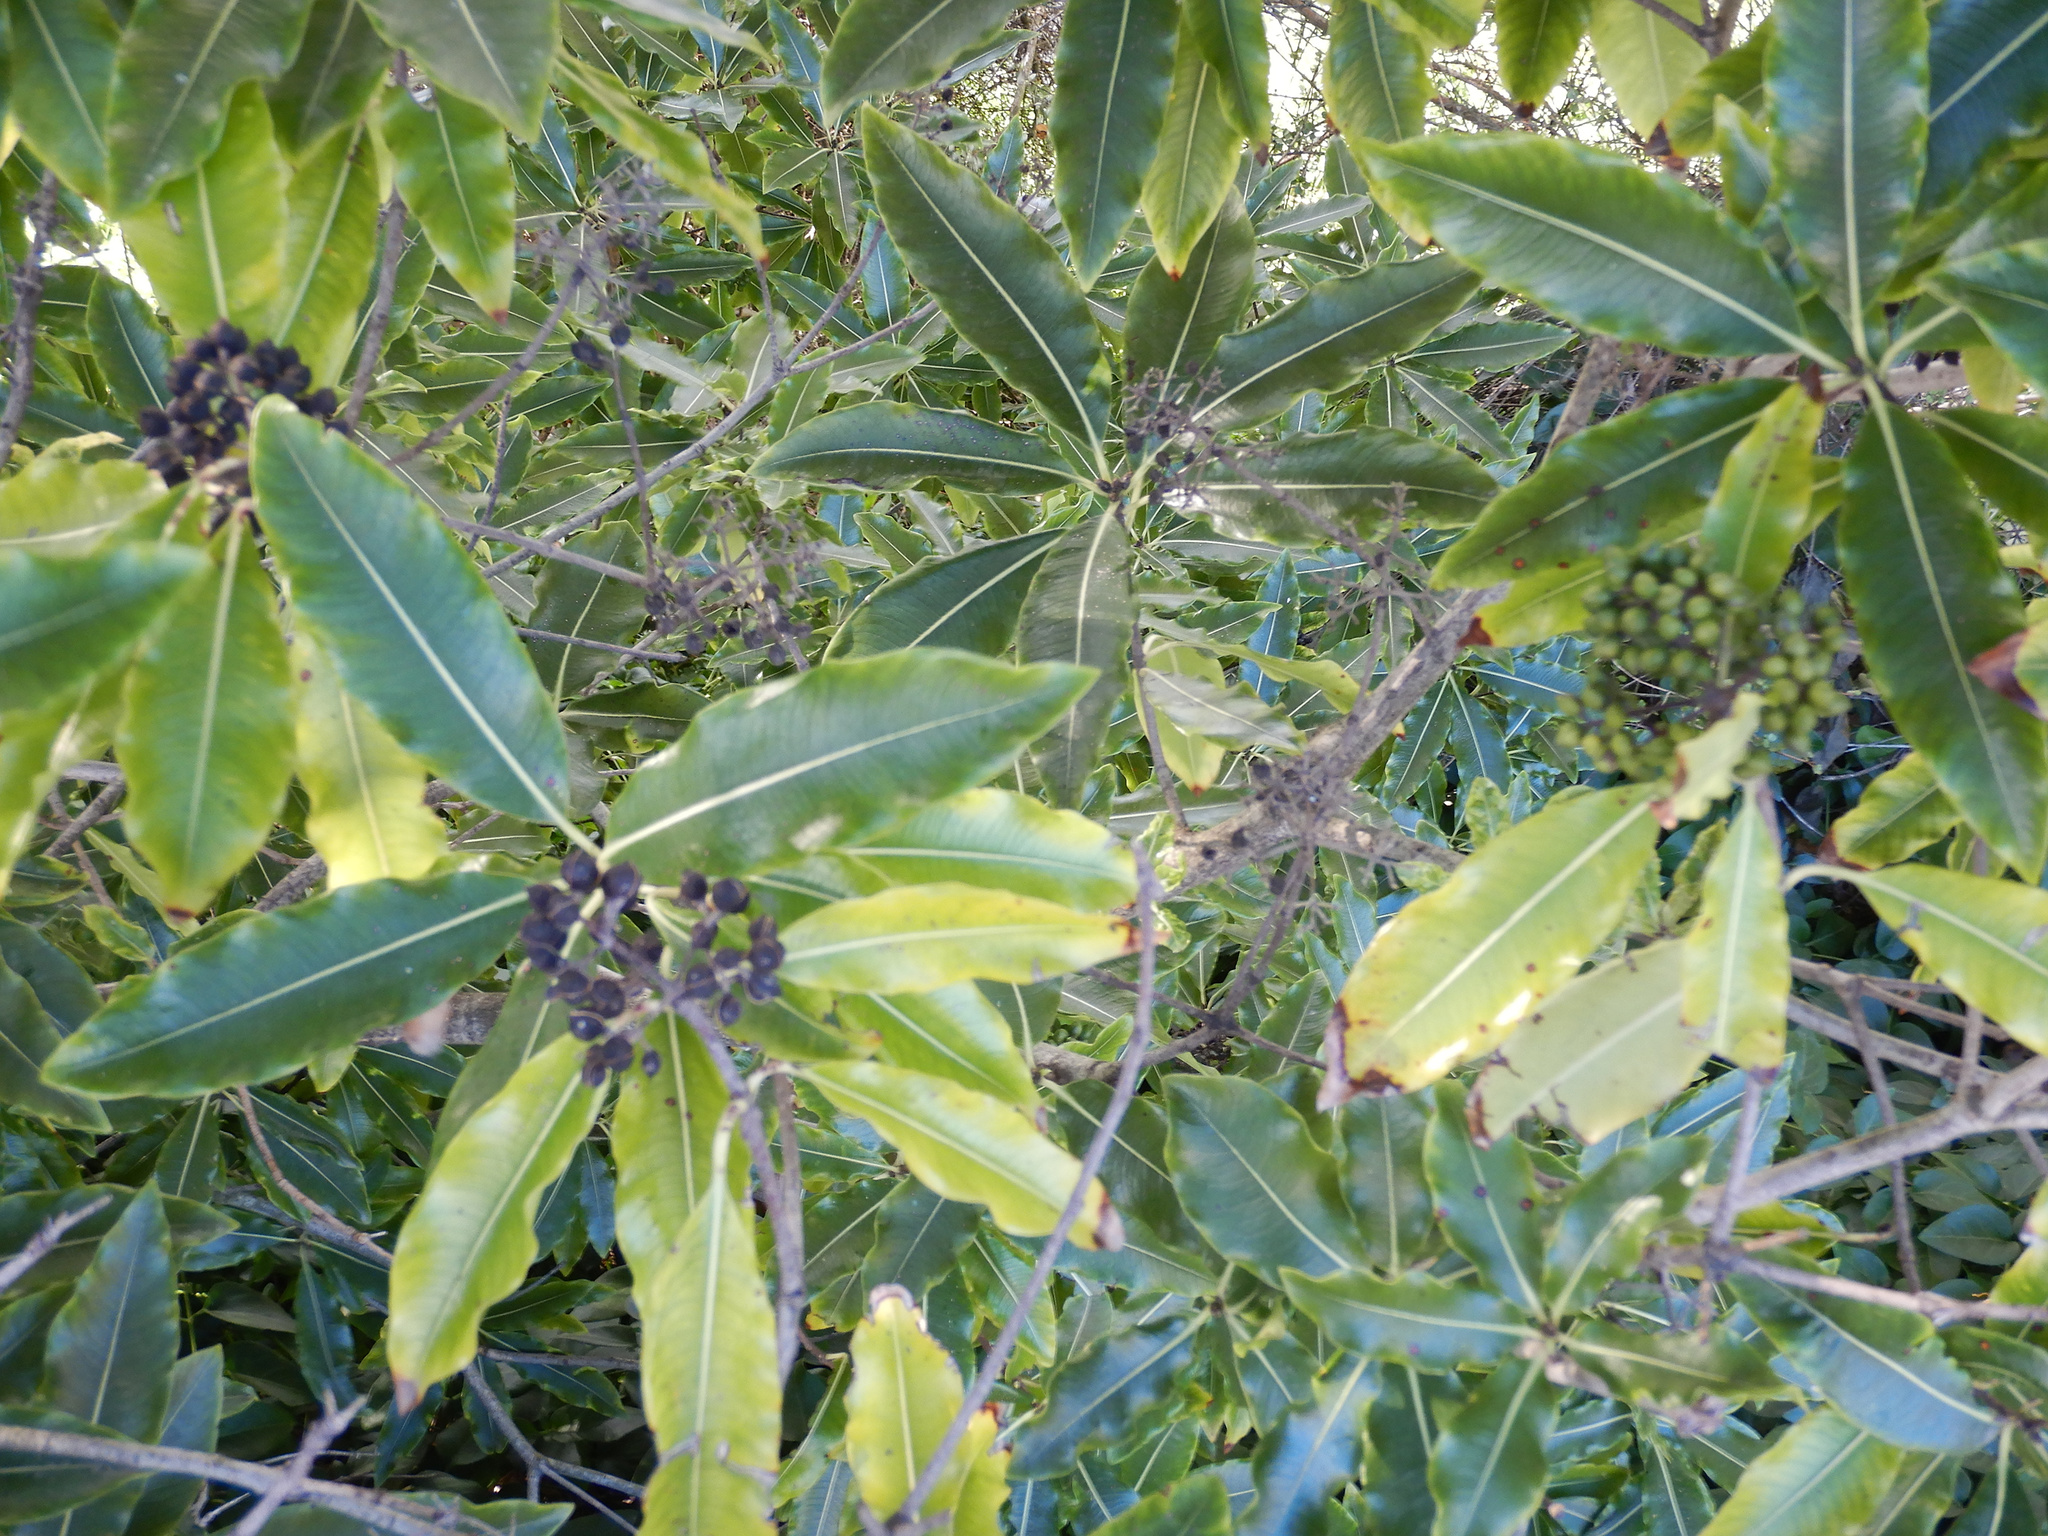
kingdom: Plantae
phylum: Tracheophyta
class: Magnoliopsida
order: Apiales
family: Pittosporaceae
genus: Pittosporum
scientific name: Pittosporum eugenioides
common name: Lemonwood
